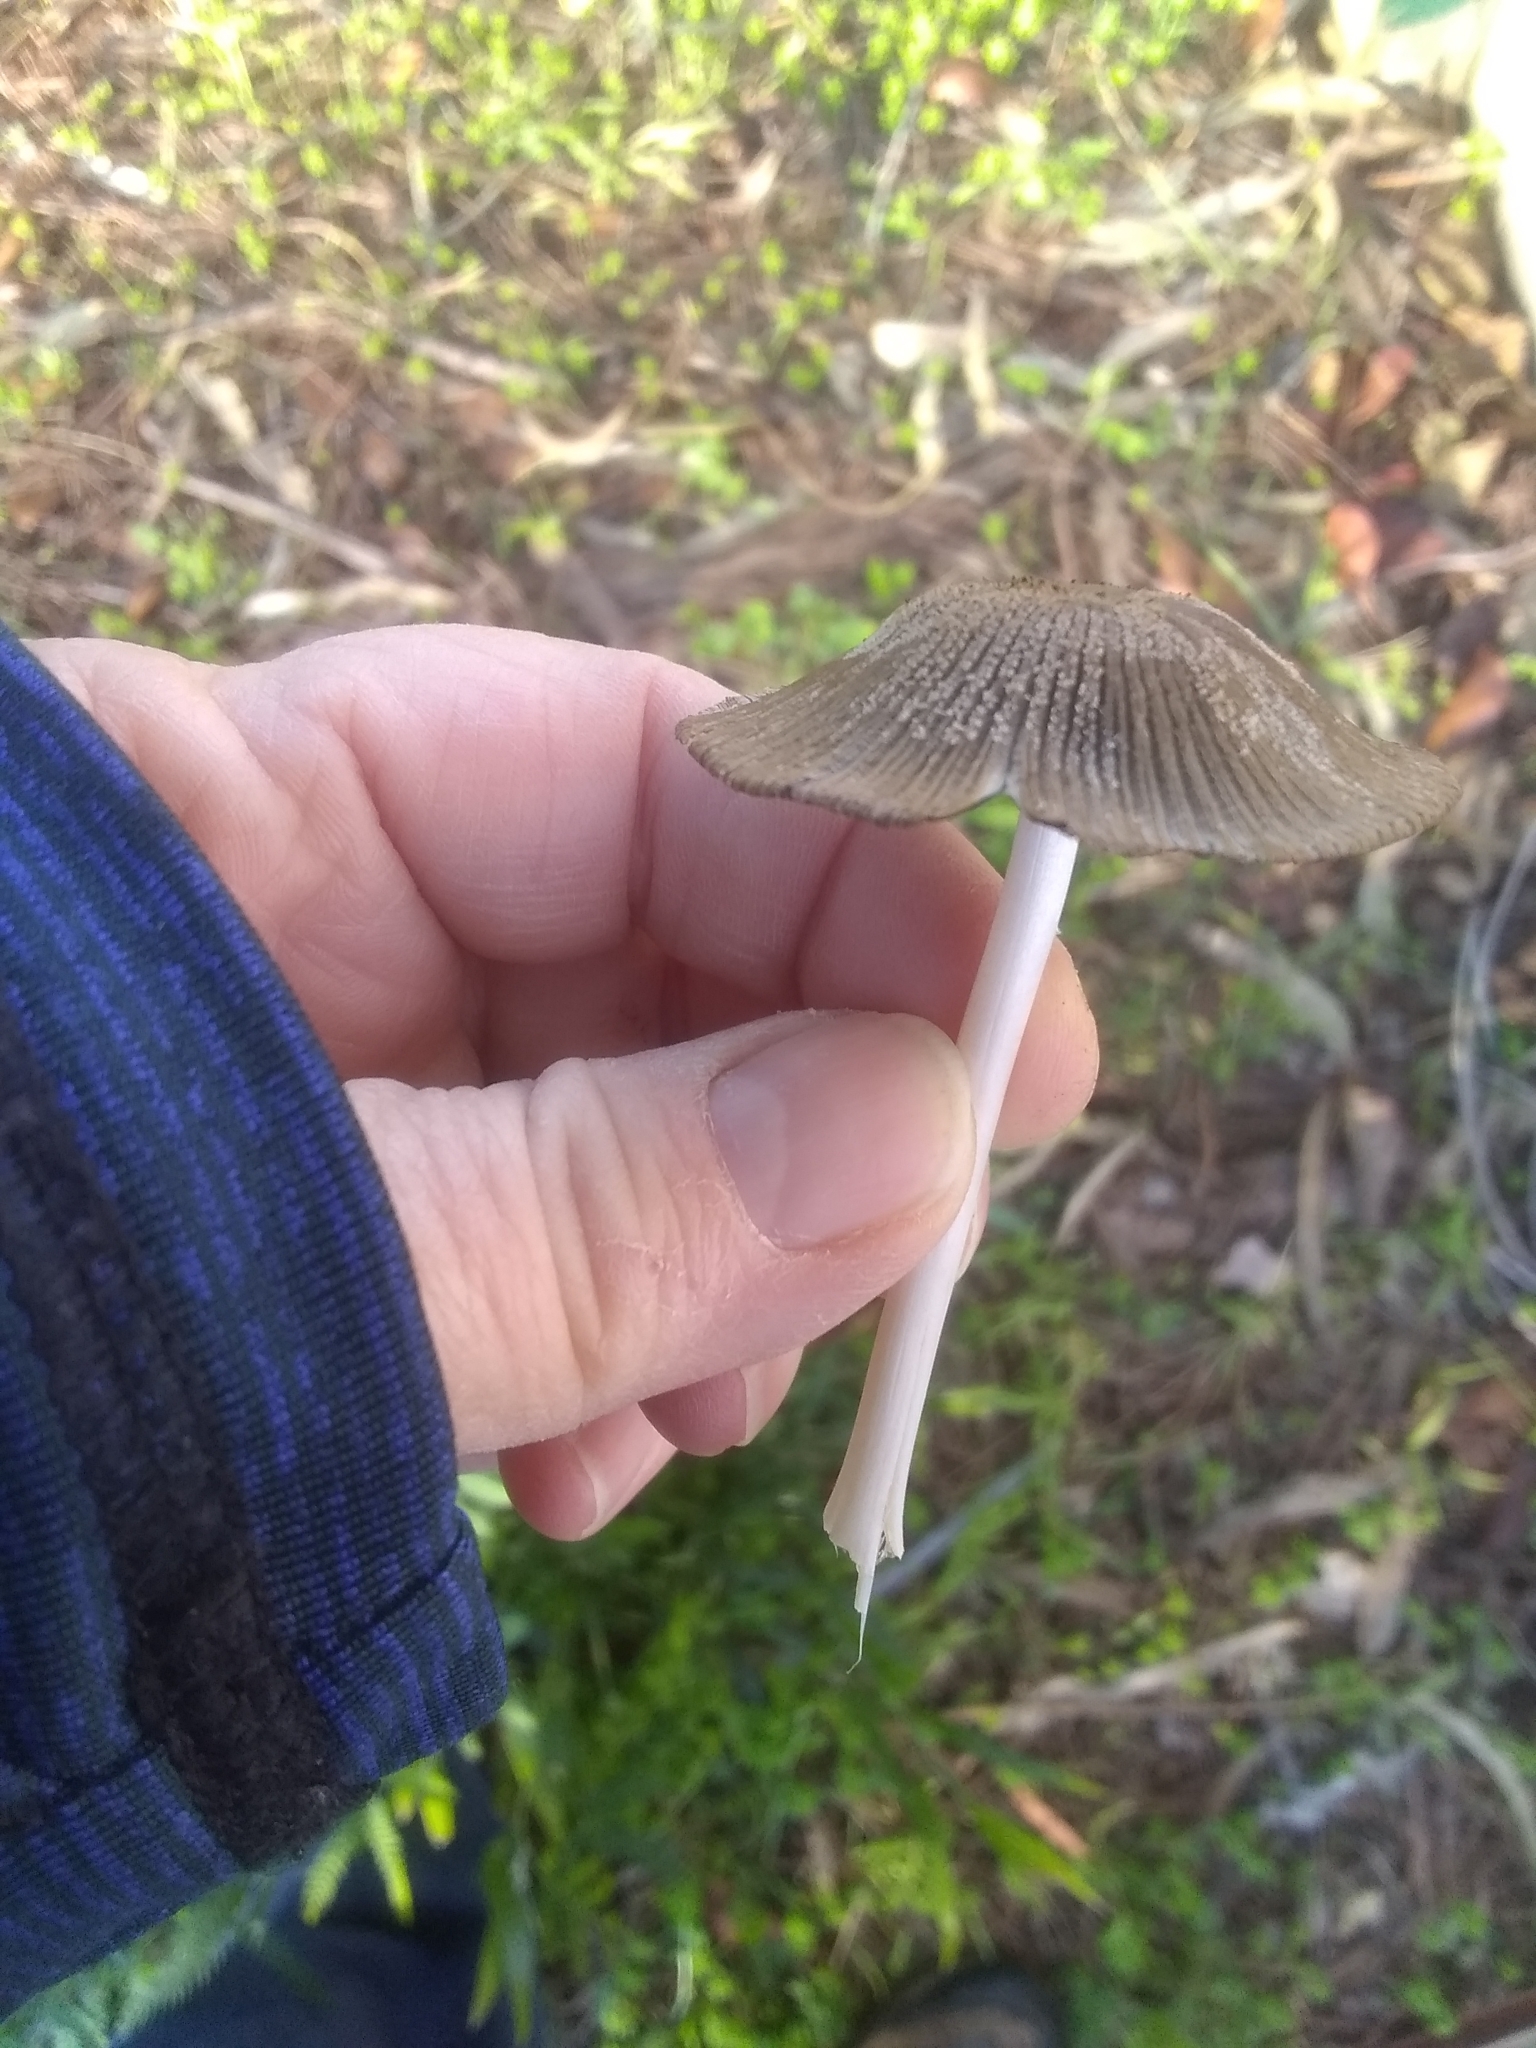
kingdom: Fungi
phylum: Basidiomycota
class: Agaricomycetes
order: Agaricales
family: Psathyrellaceae
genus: Coprinopsis
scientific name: Coprinopsis lagopus
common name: Hare'sfoot inkcap
